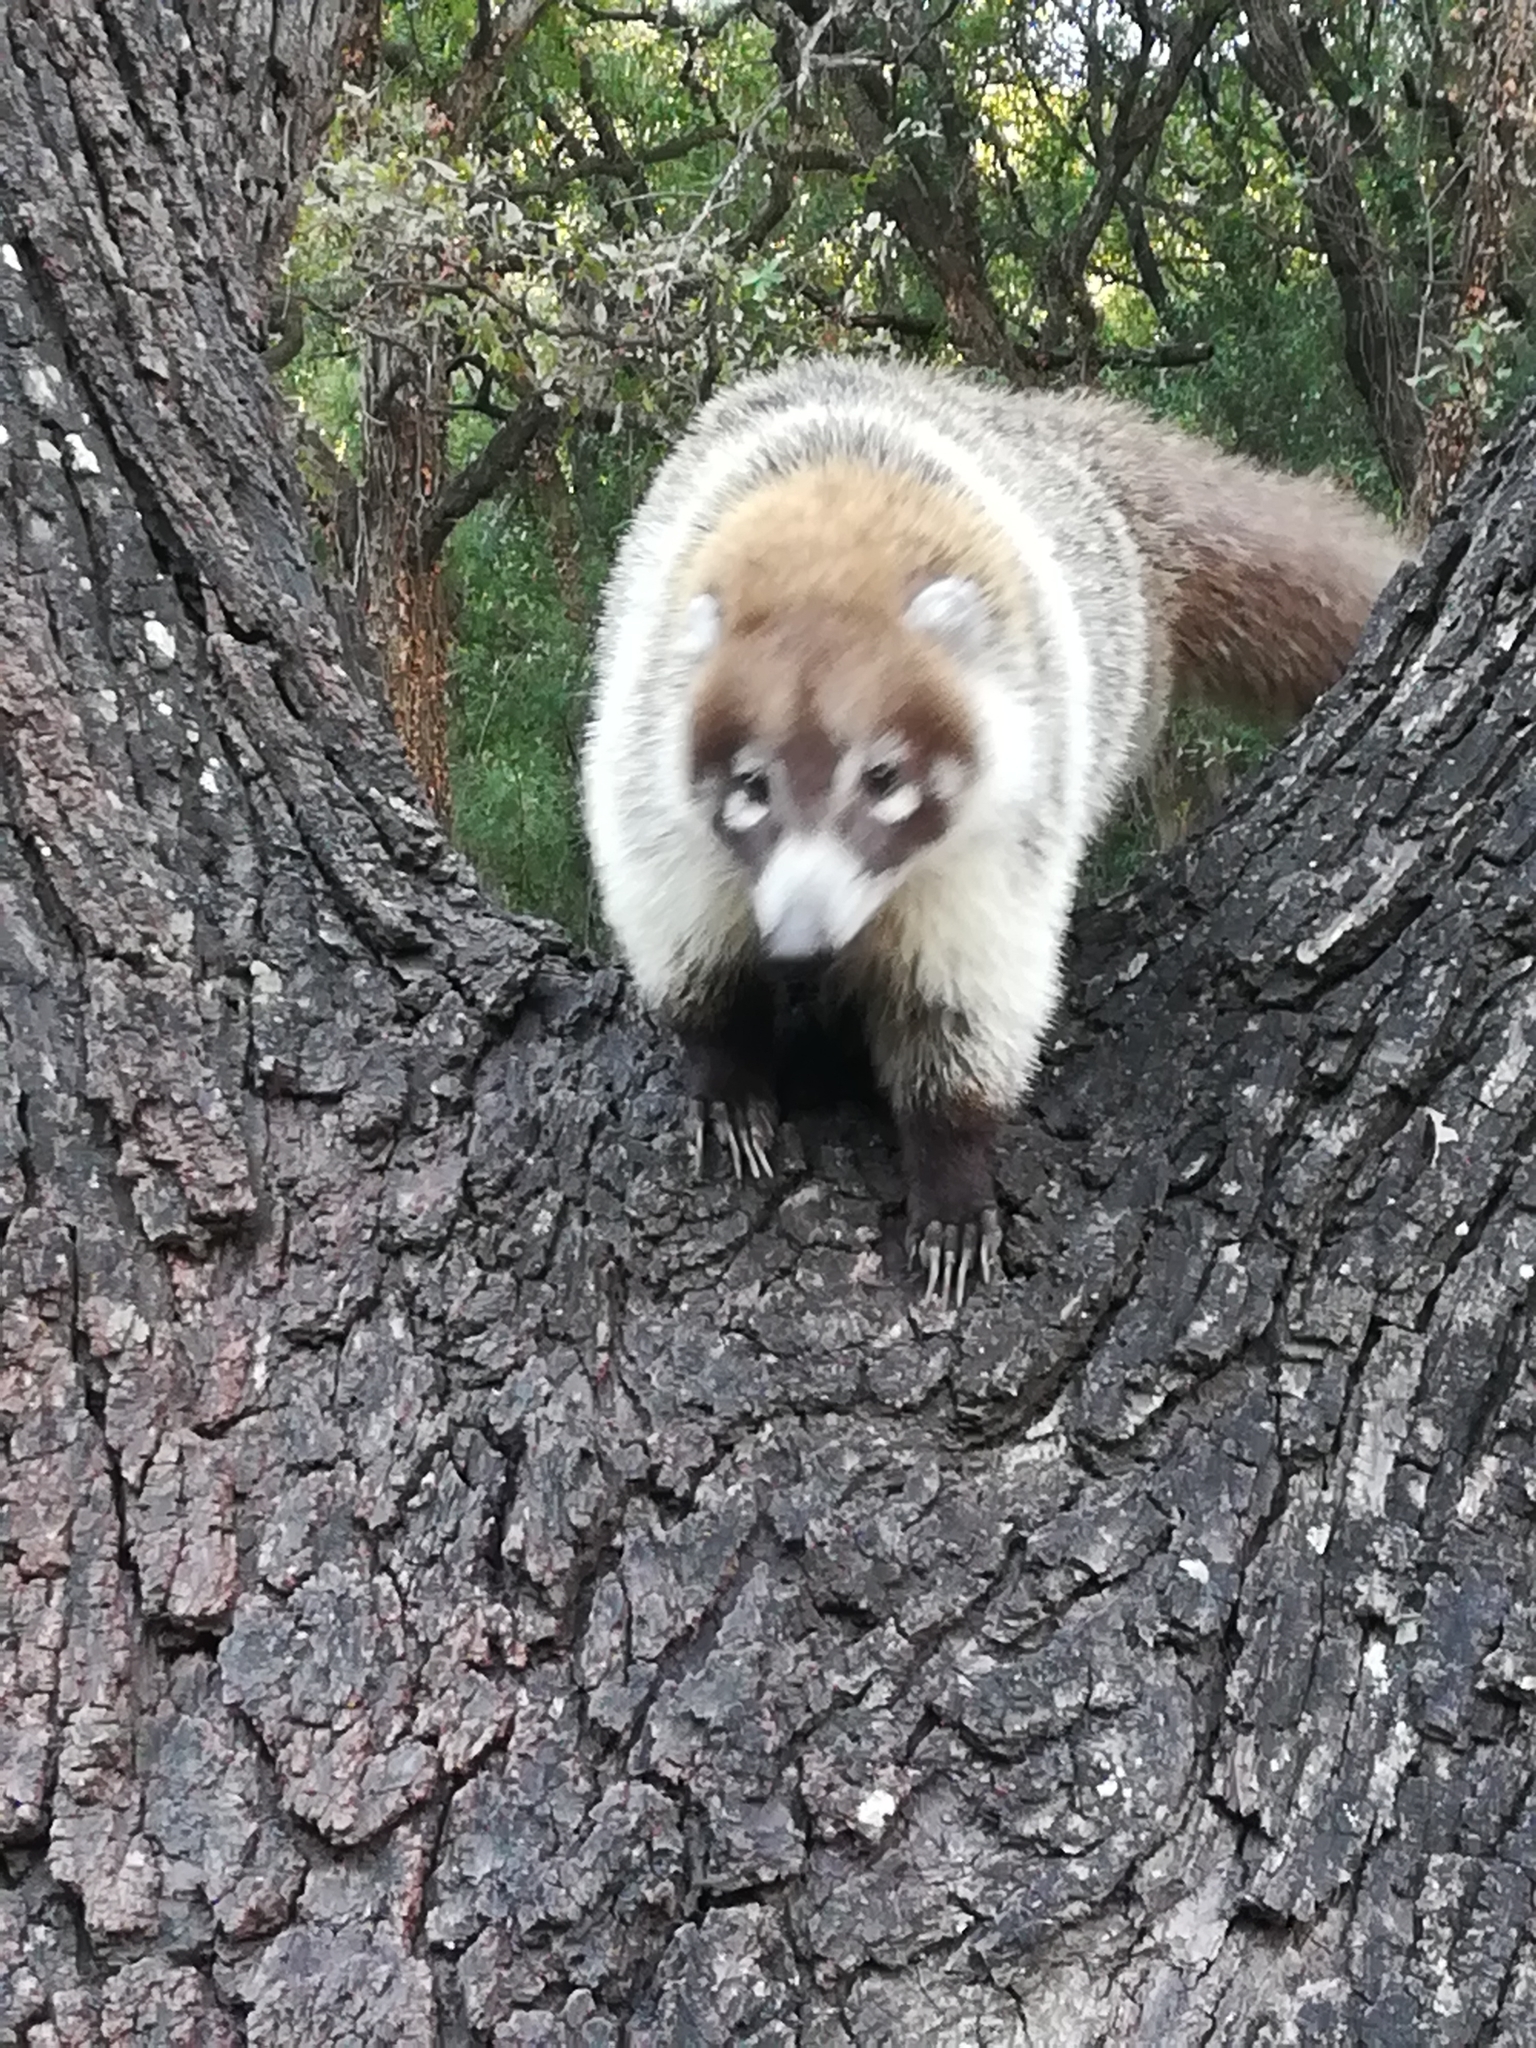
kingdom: Animalia
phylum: Chordata
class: Mammalia
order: Carnivora
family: Procyonidae
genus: Nasua
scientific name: Nasua narica
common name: White-nosed coati
